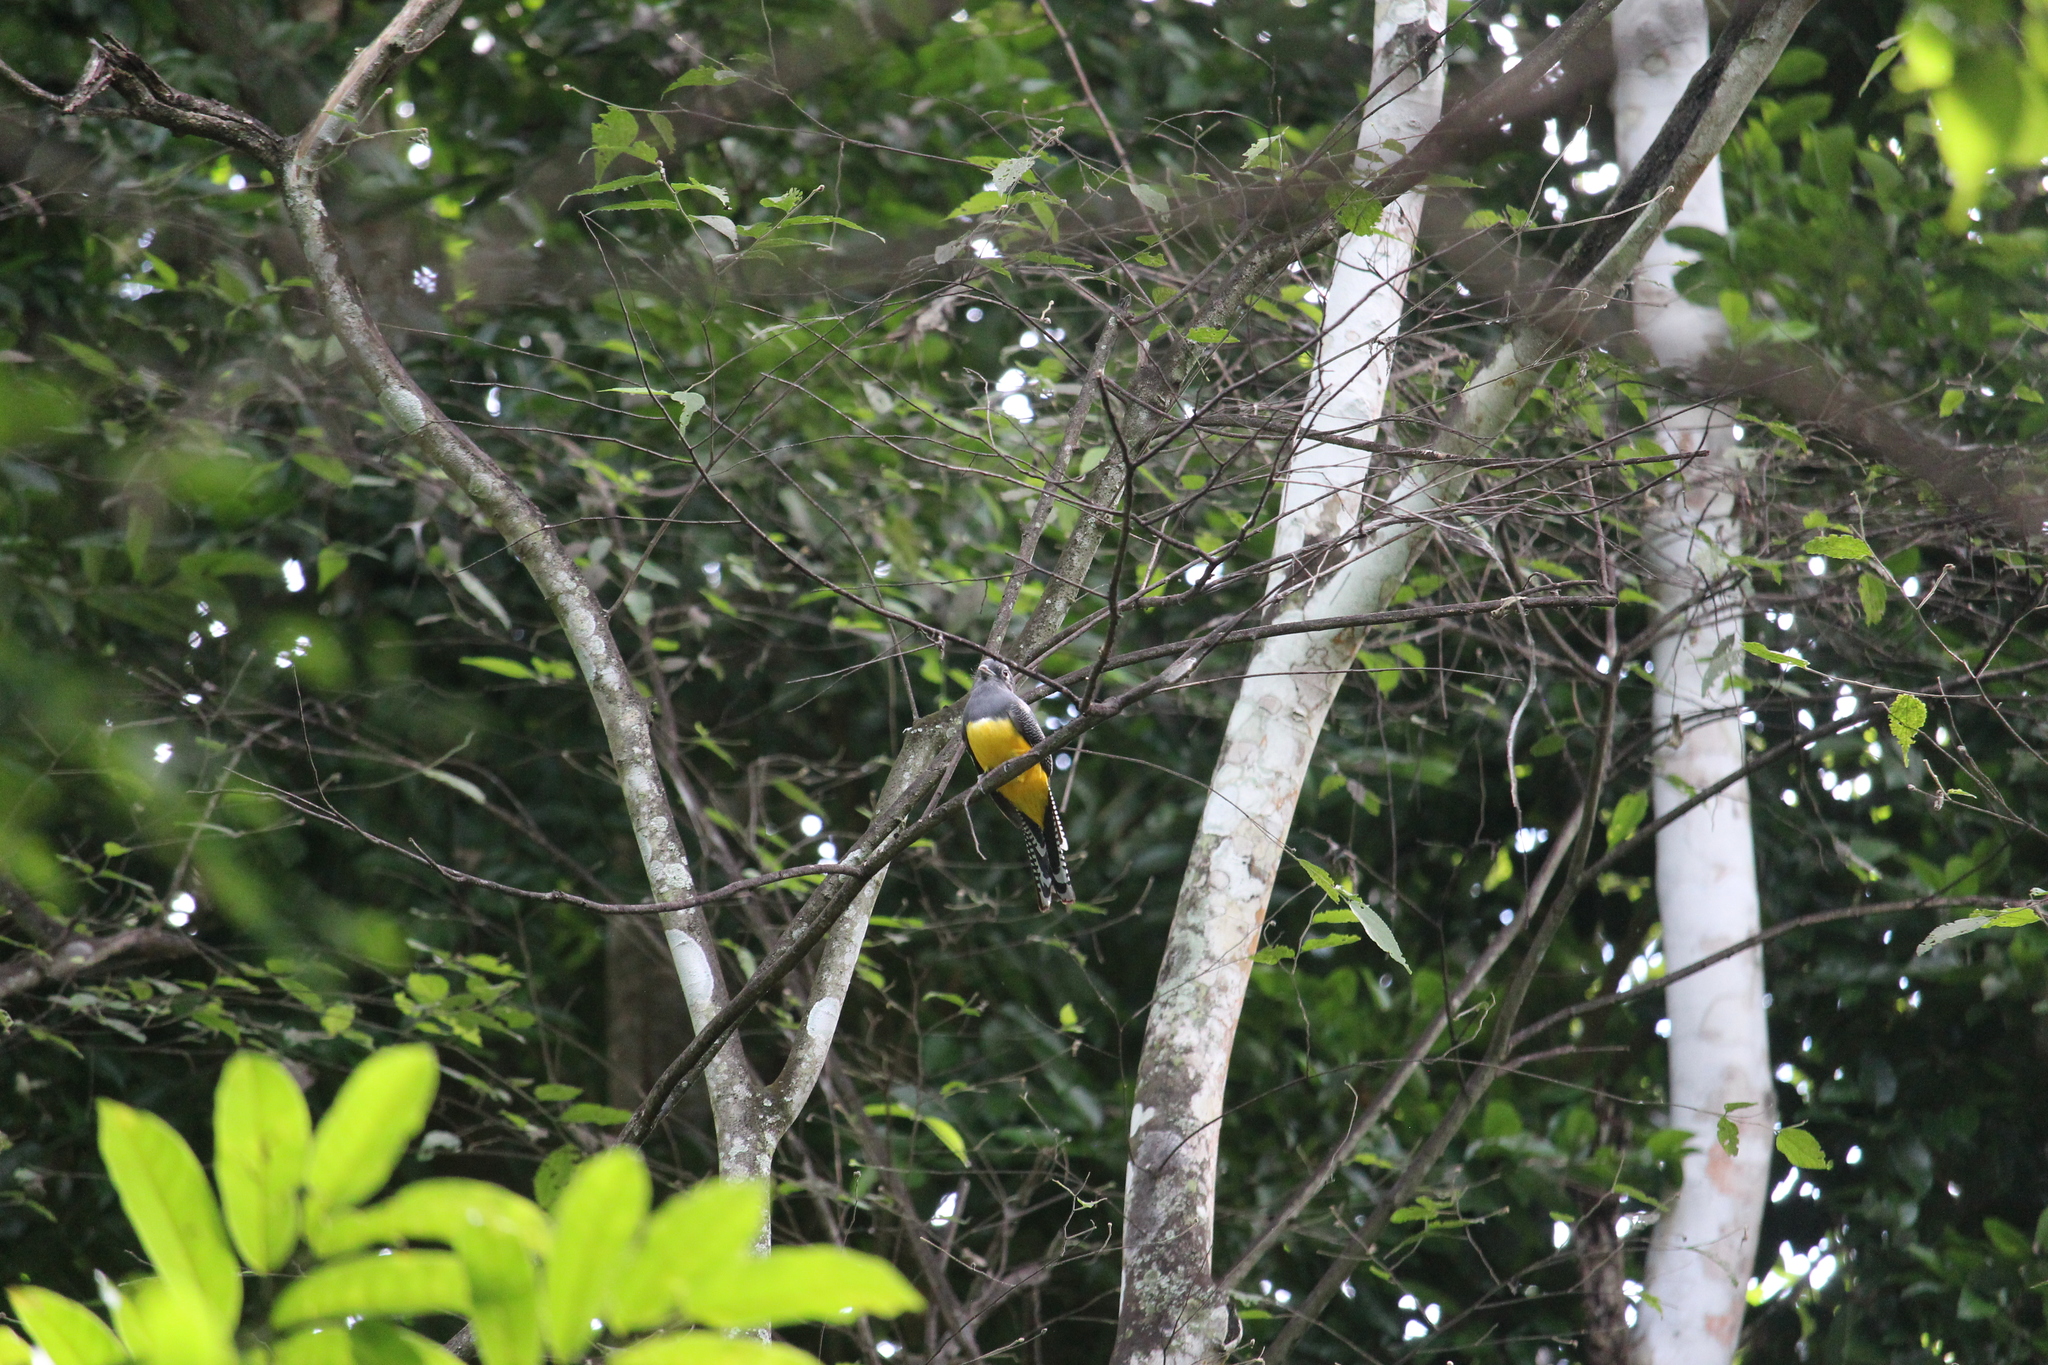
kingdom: Animalia
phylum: Chordata
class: Aves
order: Trogoniformes
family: Trogonidae
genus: Trogon
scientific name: Trogon caligatus
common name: Gartered trogon
